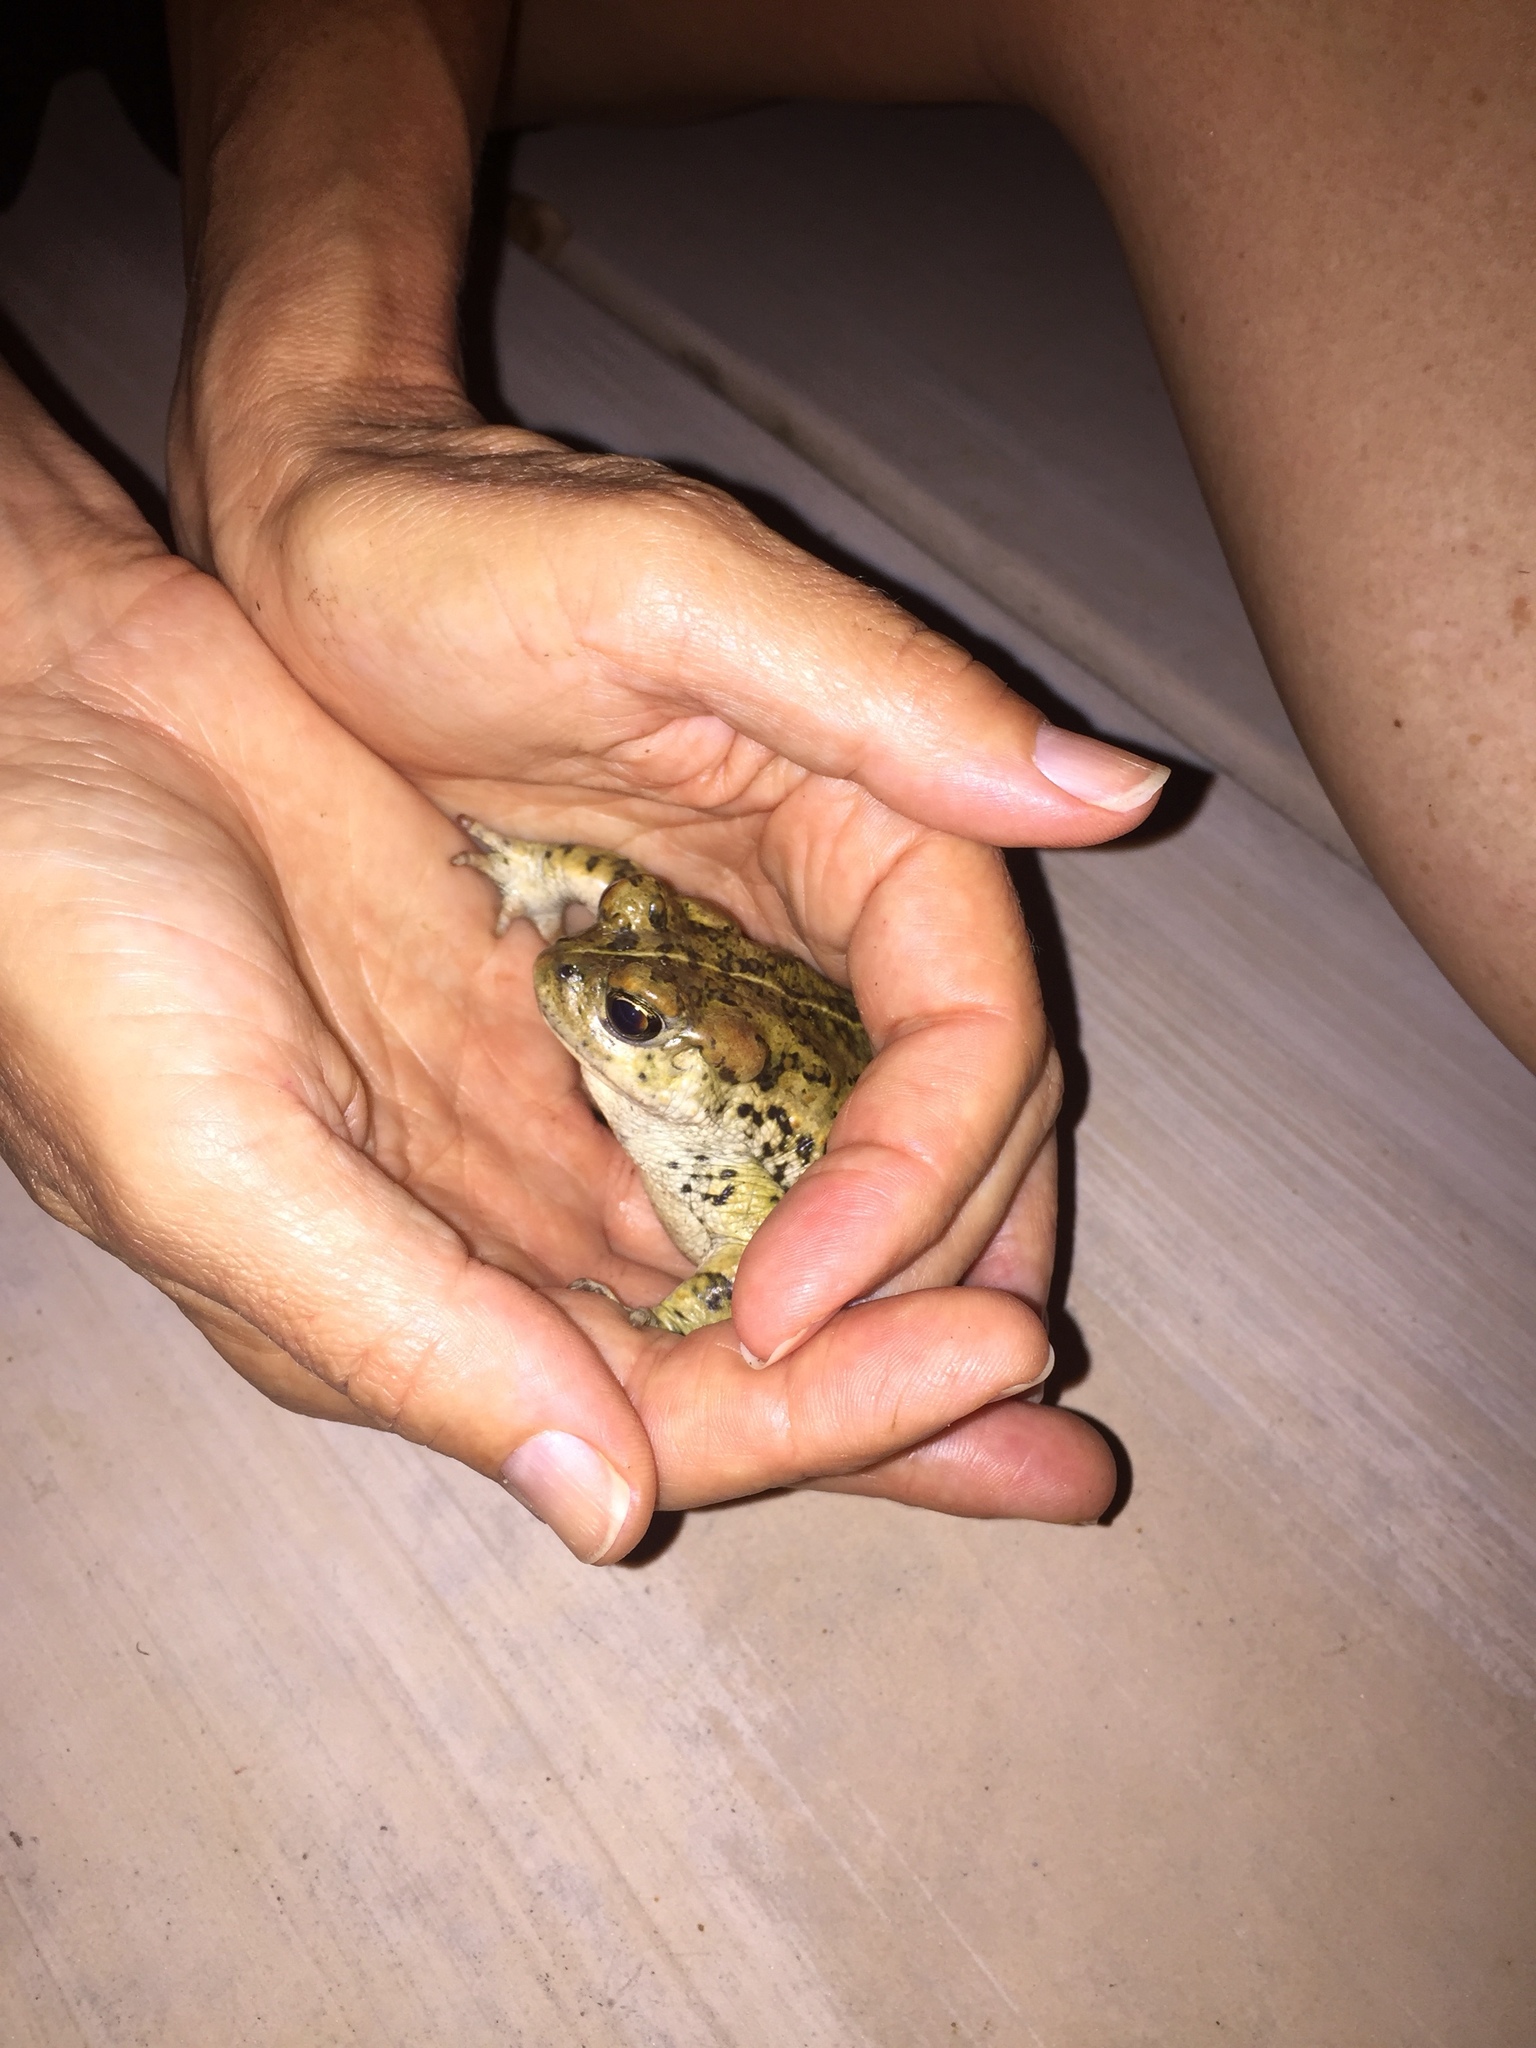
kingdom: Animalia
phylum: Chordata
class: Amphibia
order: Anura
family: Bufonidae
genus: Anaxyrus
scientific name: Anaxyrus boreas
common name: Western toad
